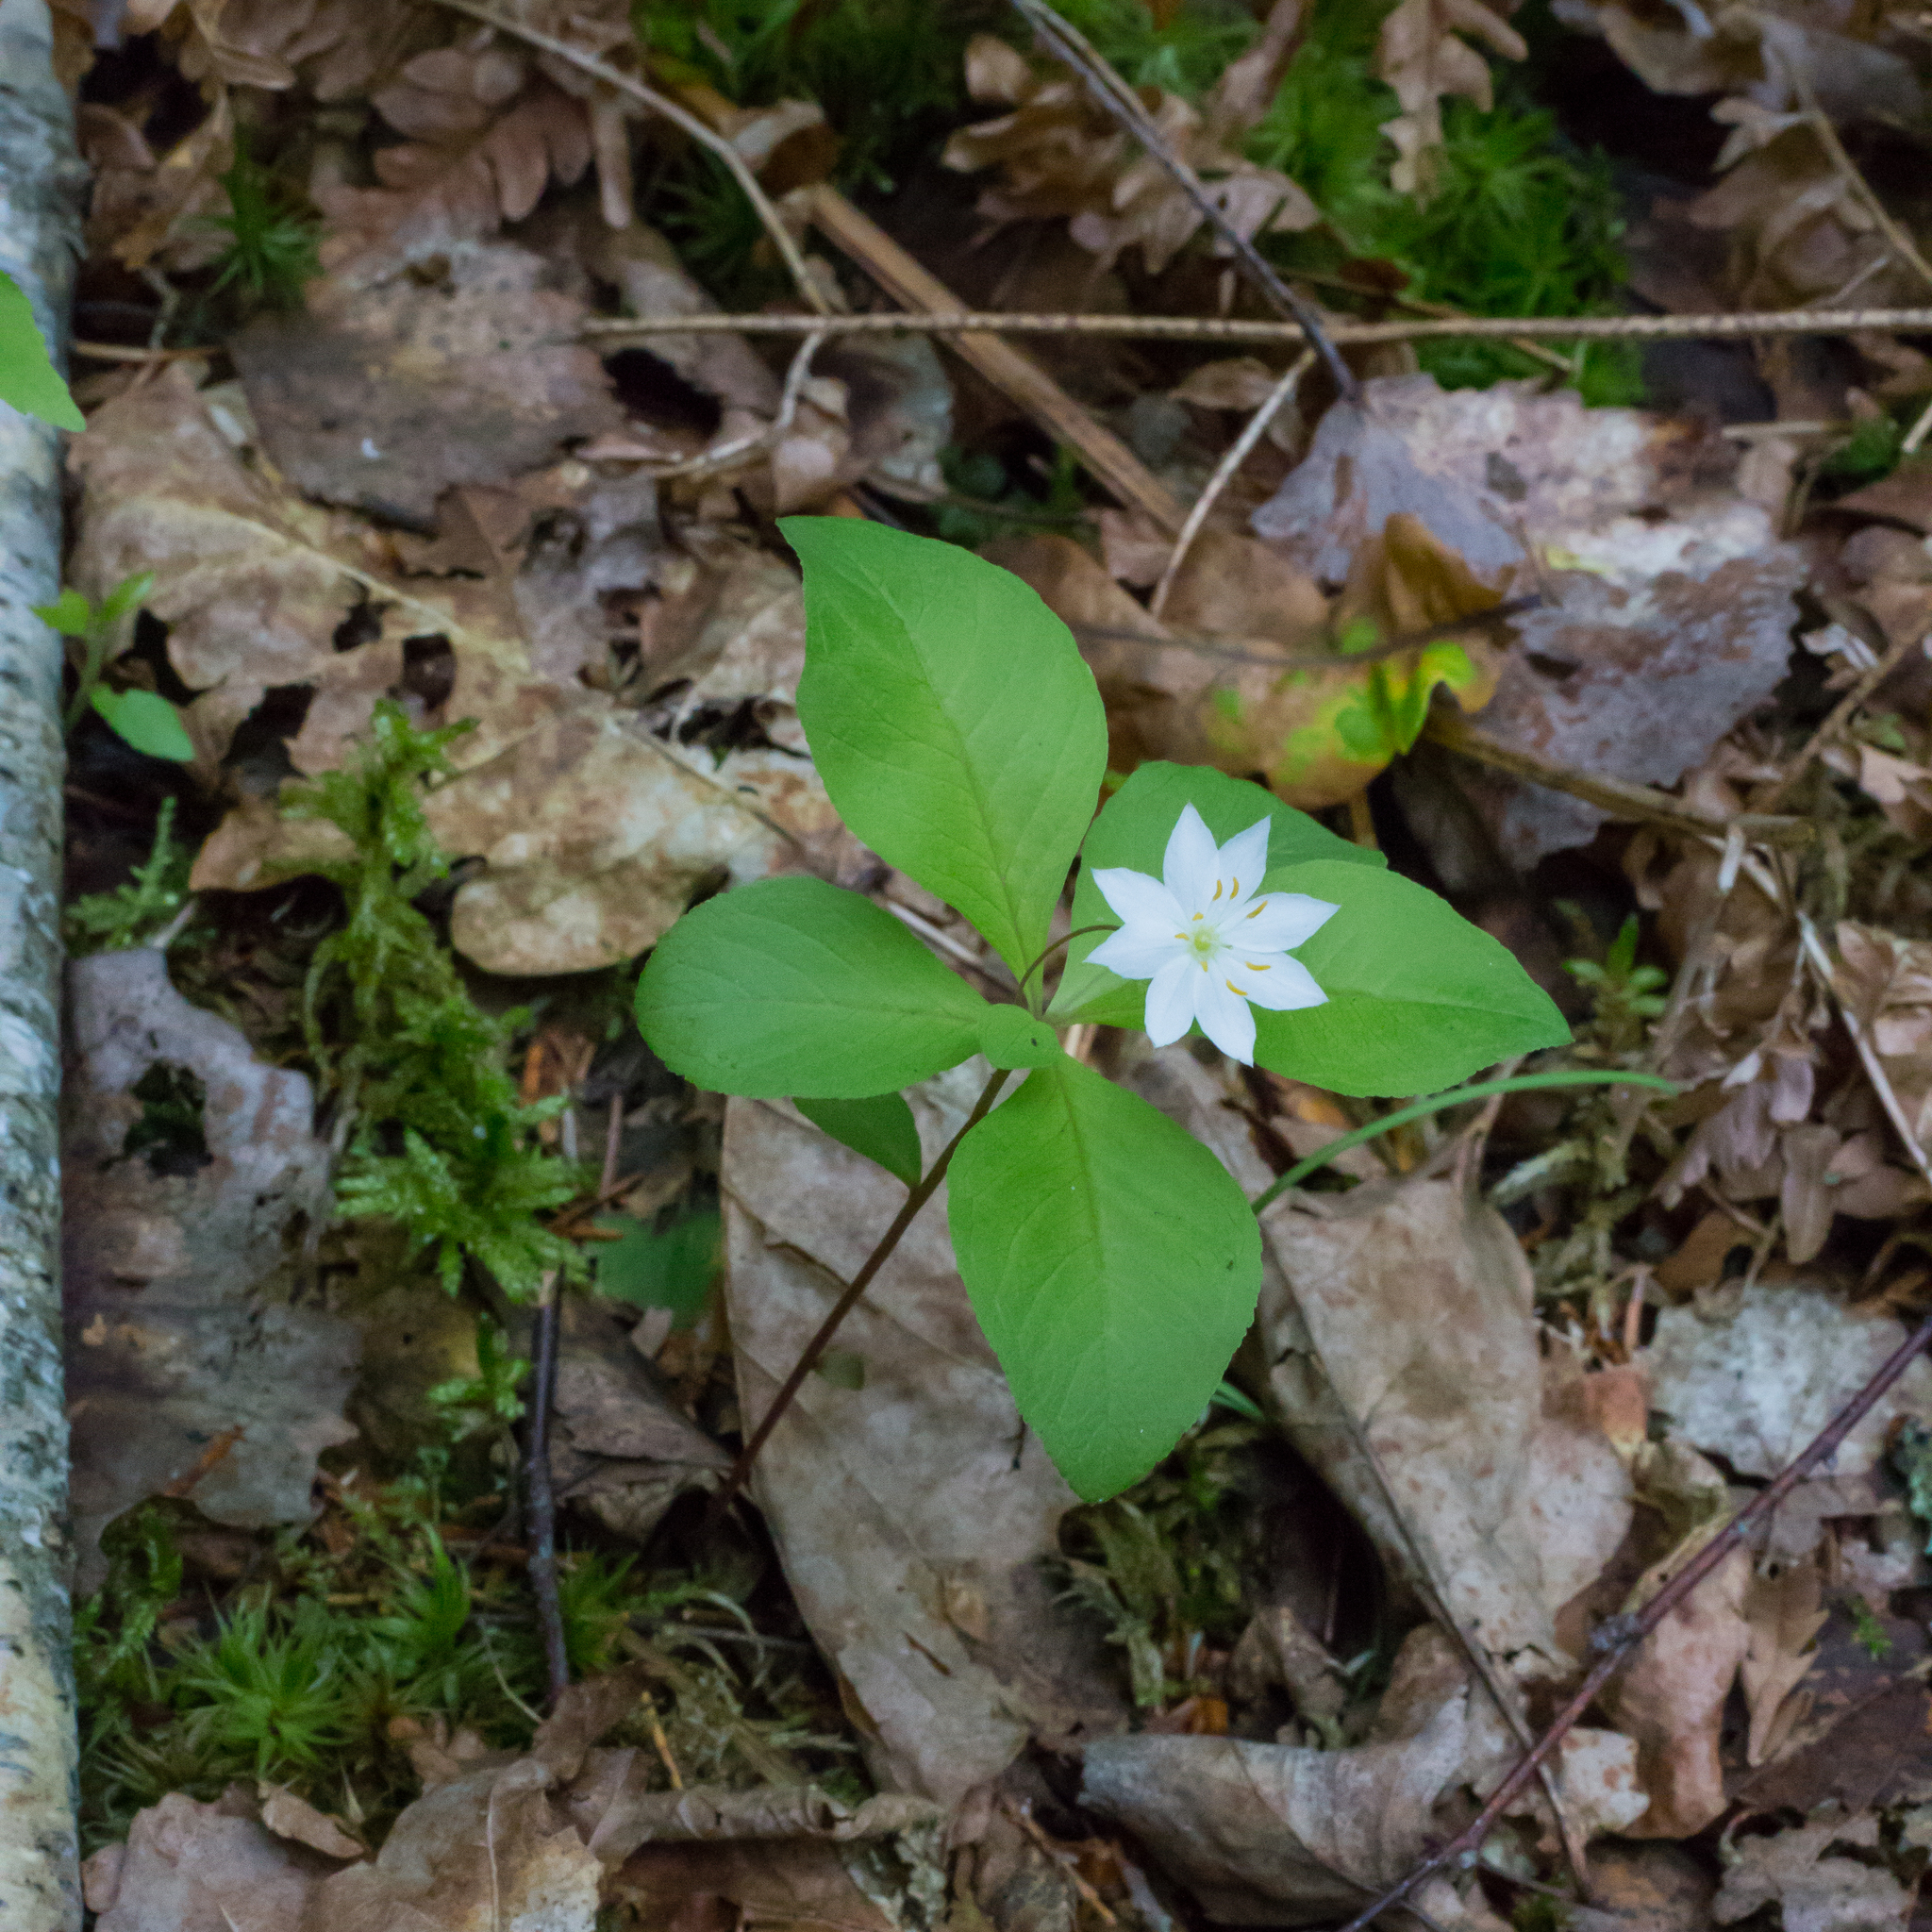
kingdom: Plantae
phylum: Tracheophyta
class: Magnoliopsida
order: Ericales
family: Primulaceae
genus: Lysimachia
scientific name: Lysimachia europaea
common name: Arctic starflower
